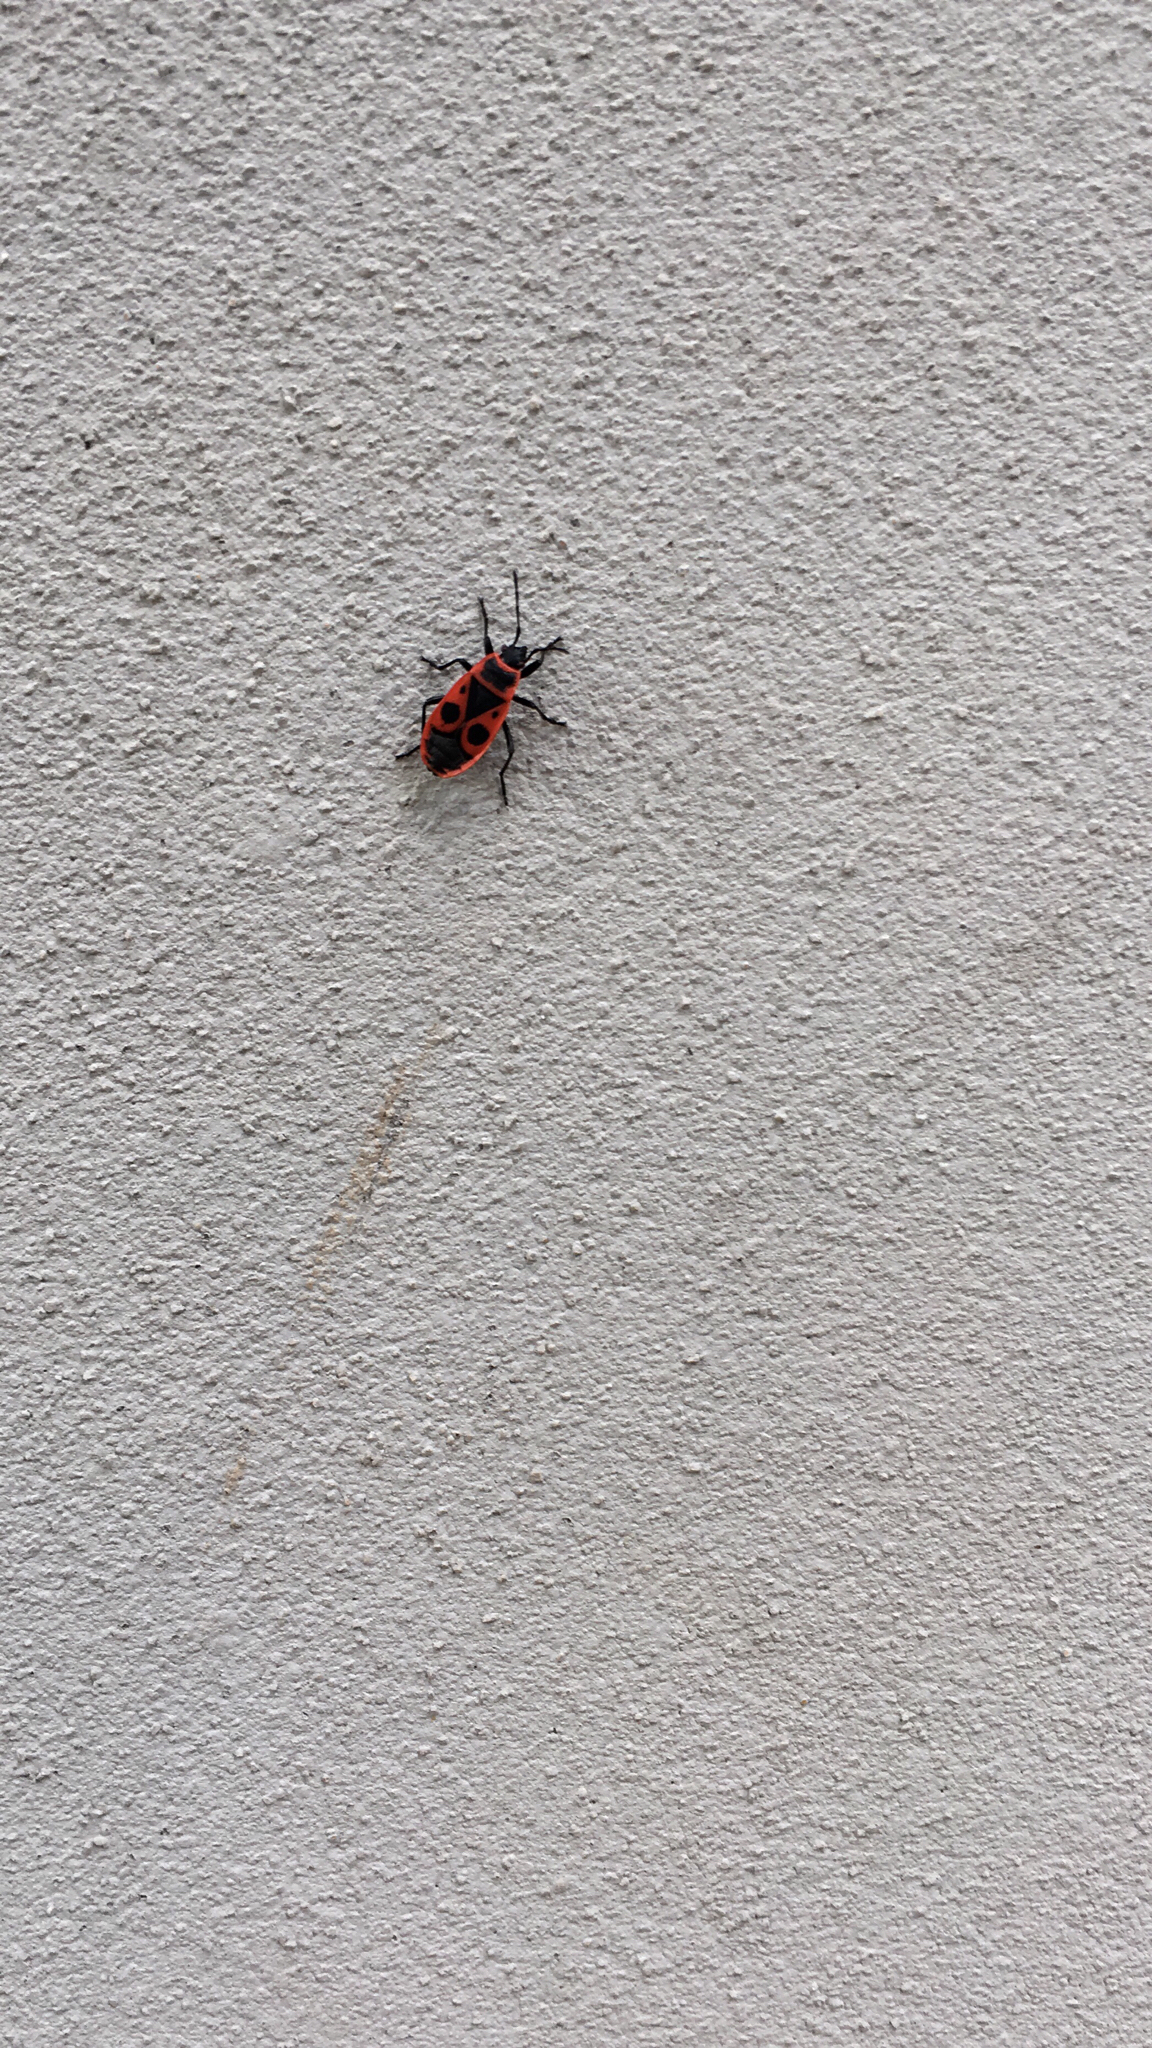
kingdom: Animalia
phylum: Arthropoda
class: Insecta
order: Hemiptera
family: Pyrrhocoridae
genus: Pyrrhocoris
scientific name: Pyrrhocoris apterus
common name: Firebug
